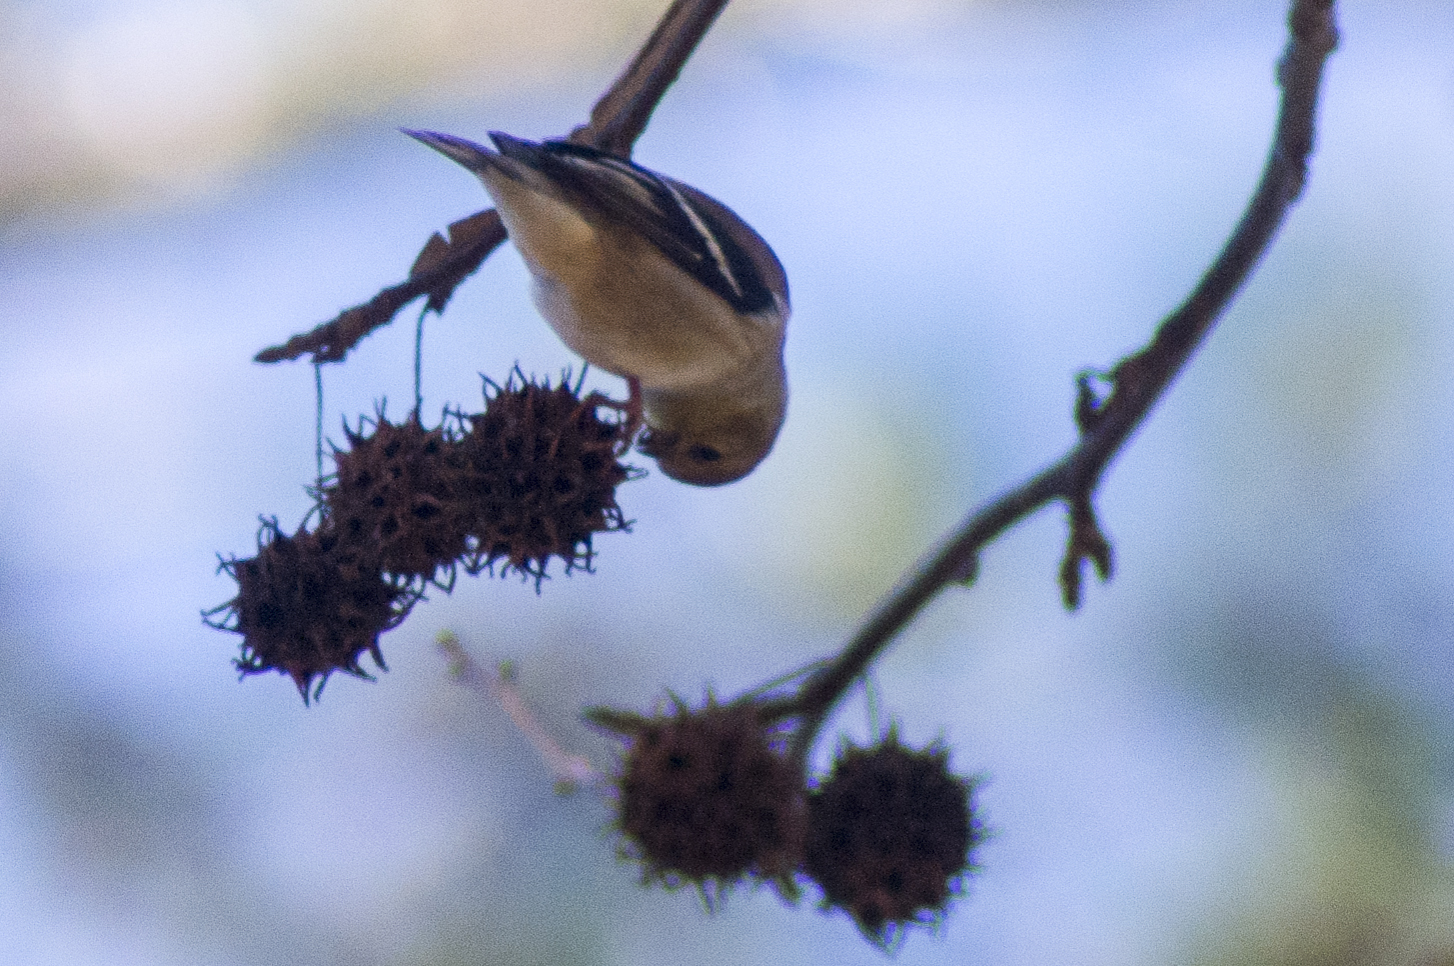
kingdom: Animalia
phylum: Chordata
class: Aves
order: Passeriformes
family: Fringillidae
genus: Spinus
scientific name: Spinus tristis
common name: American goldfinch
